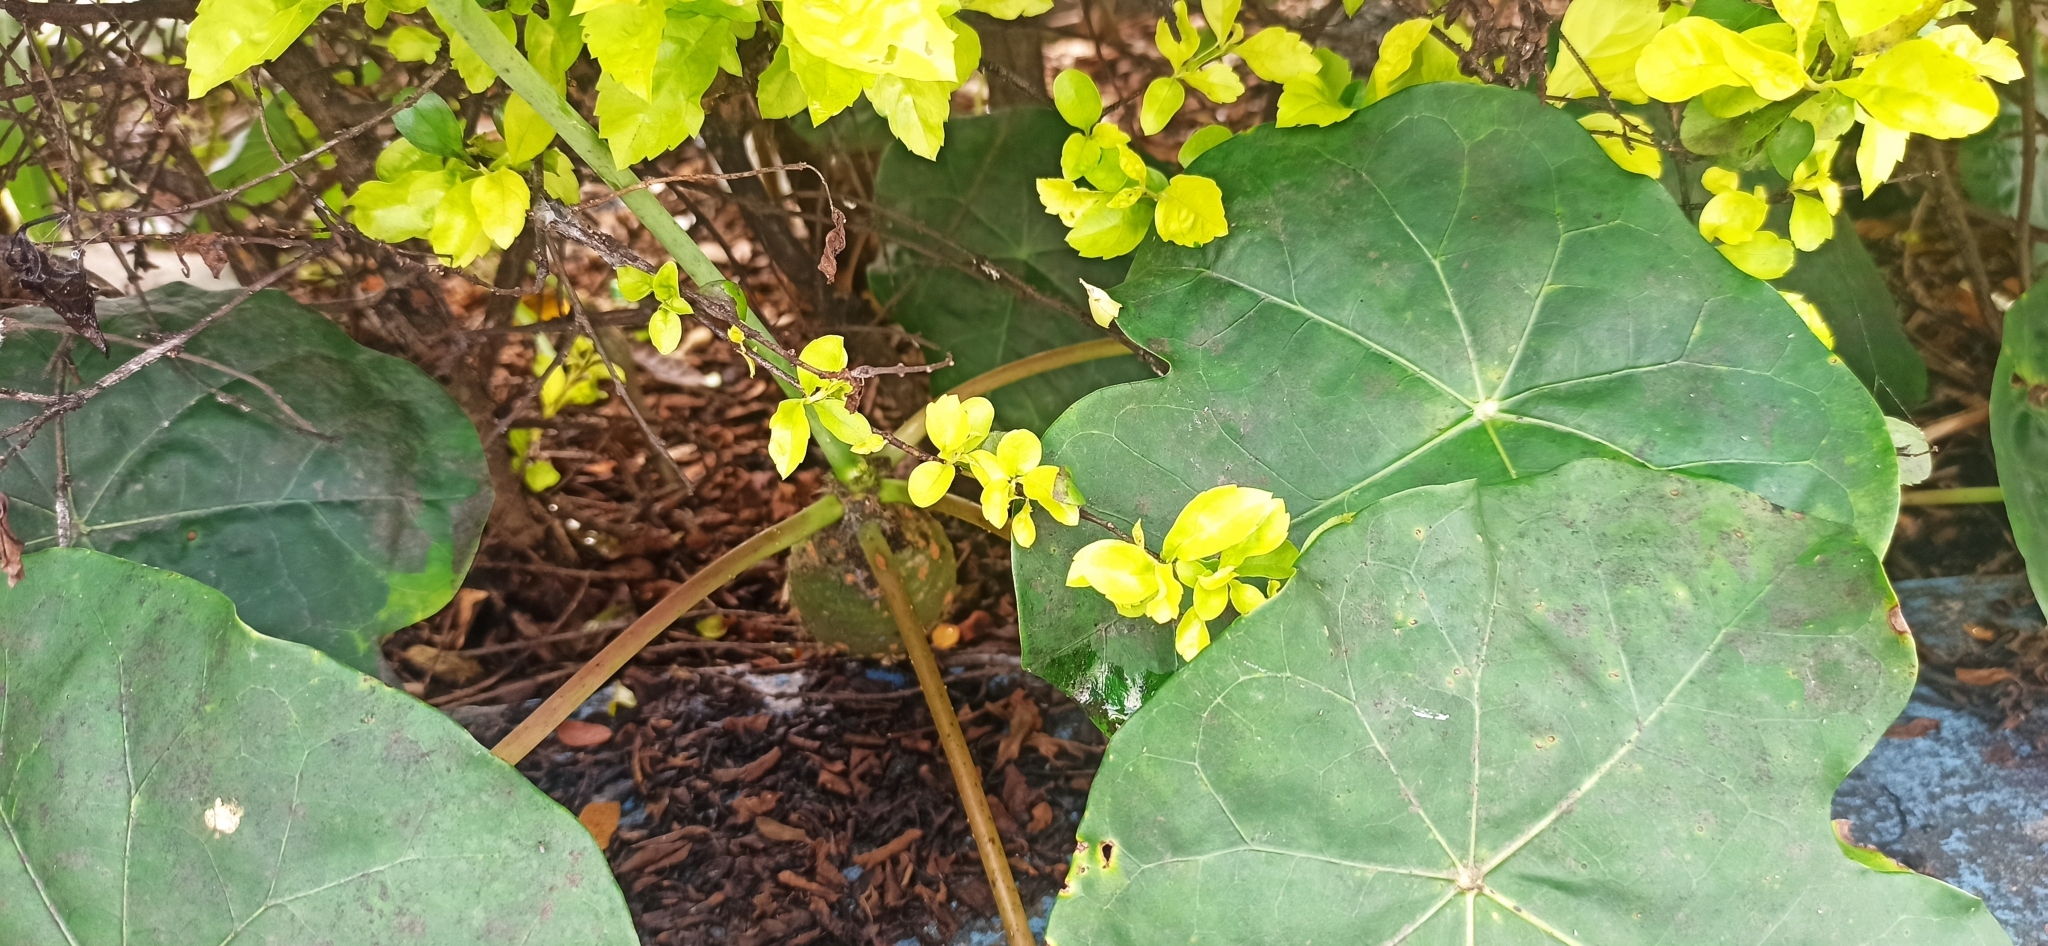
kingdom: Plantae
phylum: Tracheophyta
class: Magnoliopsida
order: Malpighiales
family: Euphorbiaceae
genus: Jatropha
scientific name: Jatropha podagrica
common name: Gout stalk
